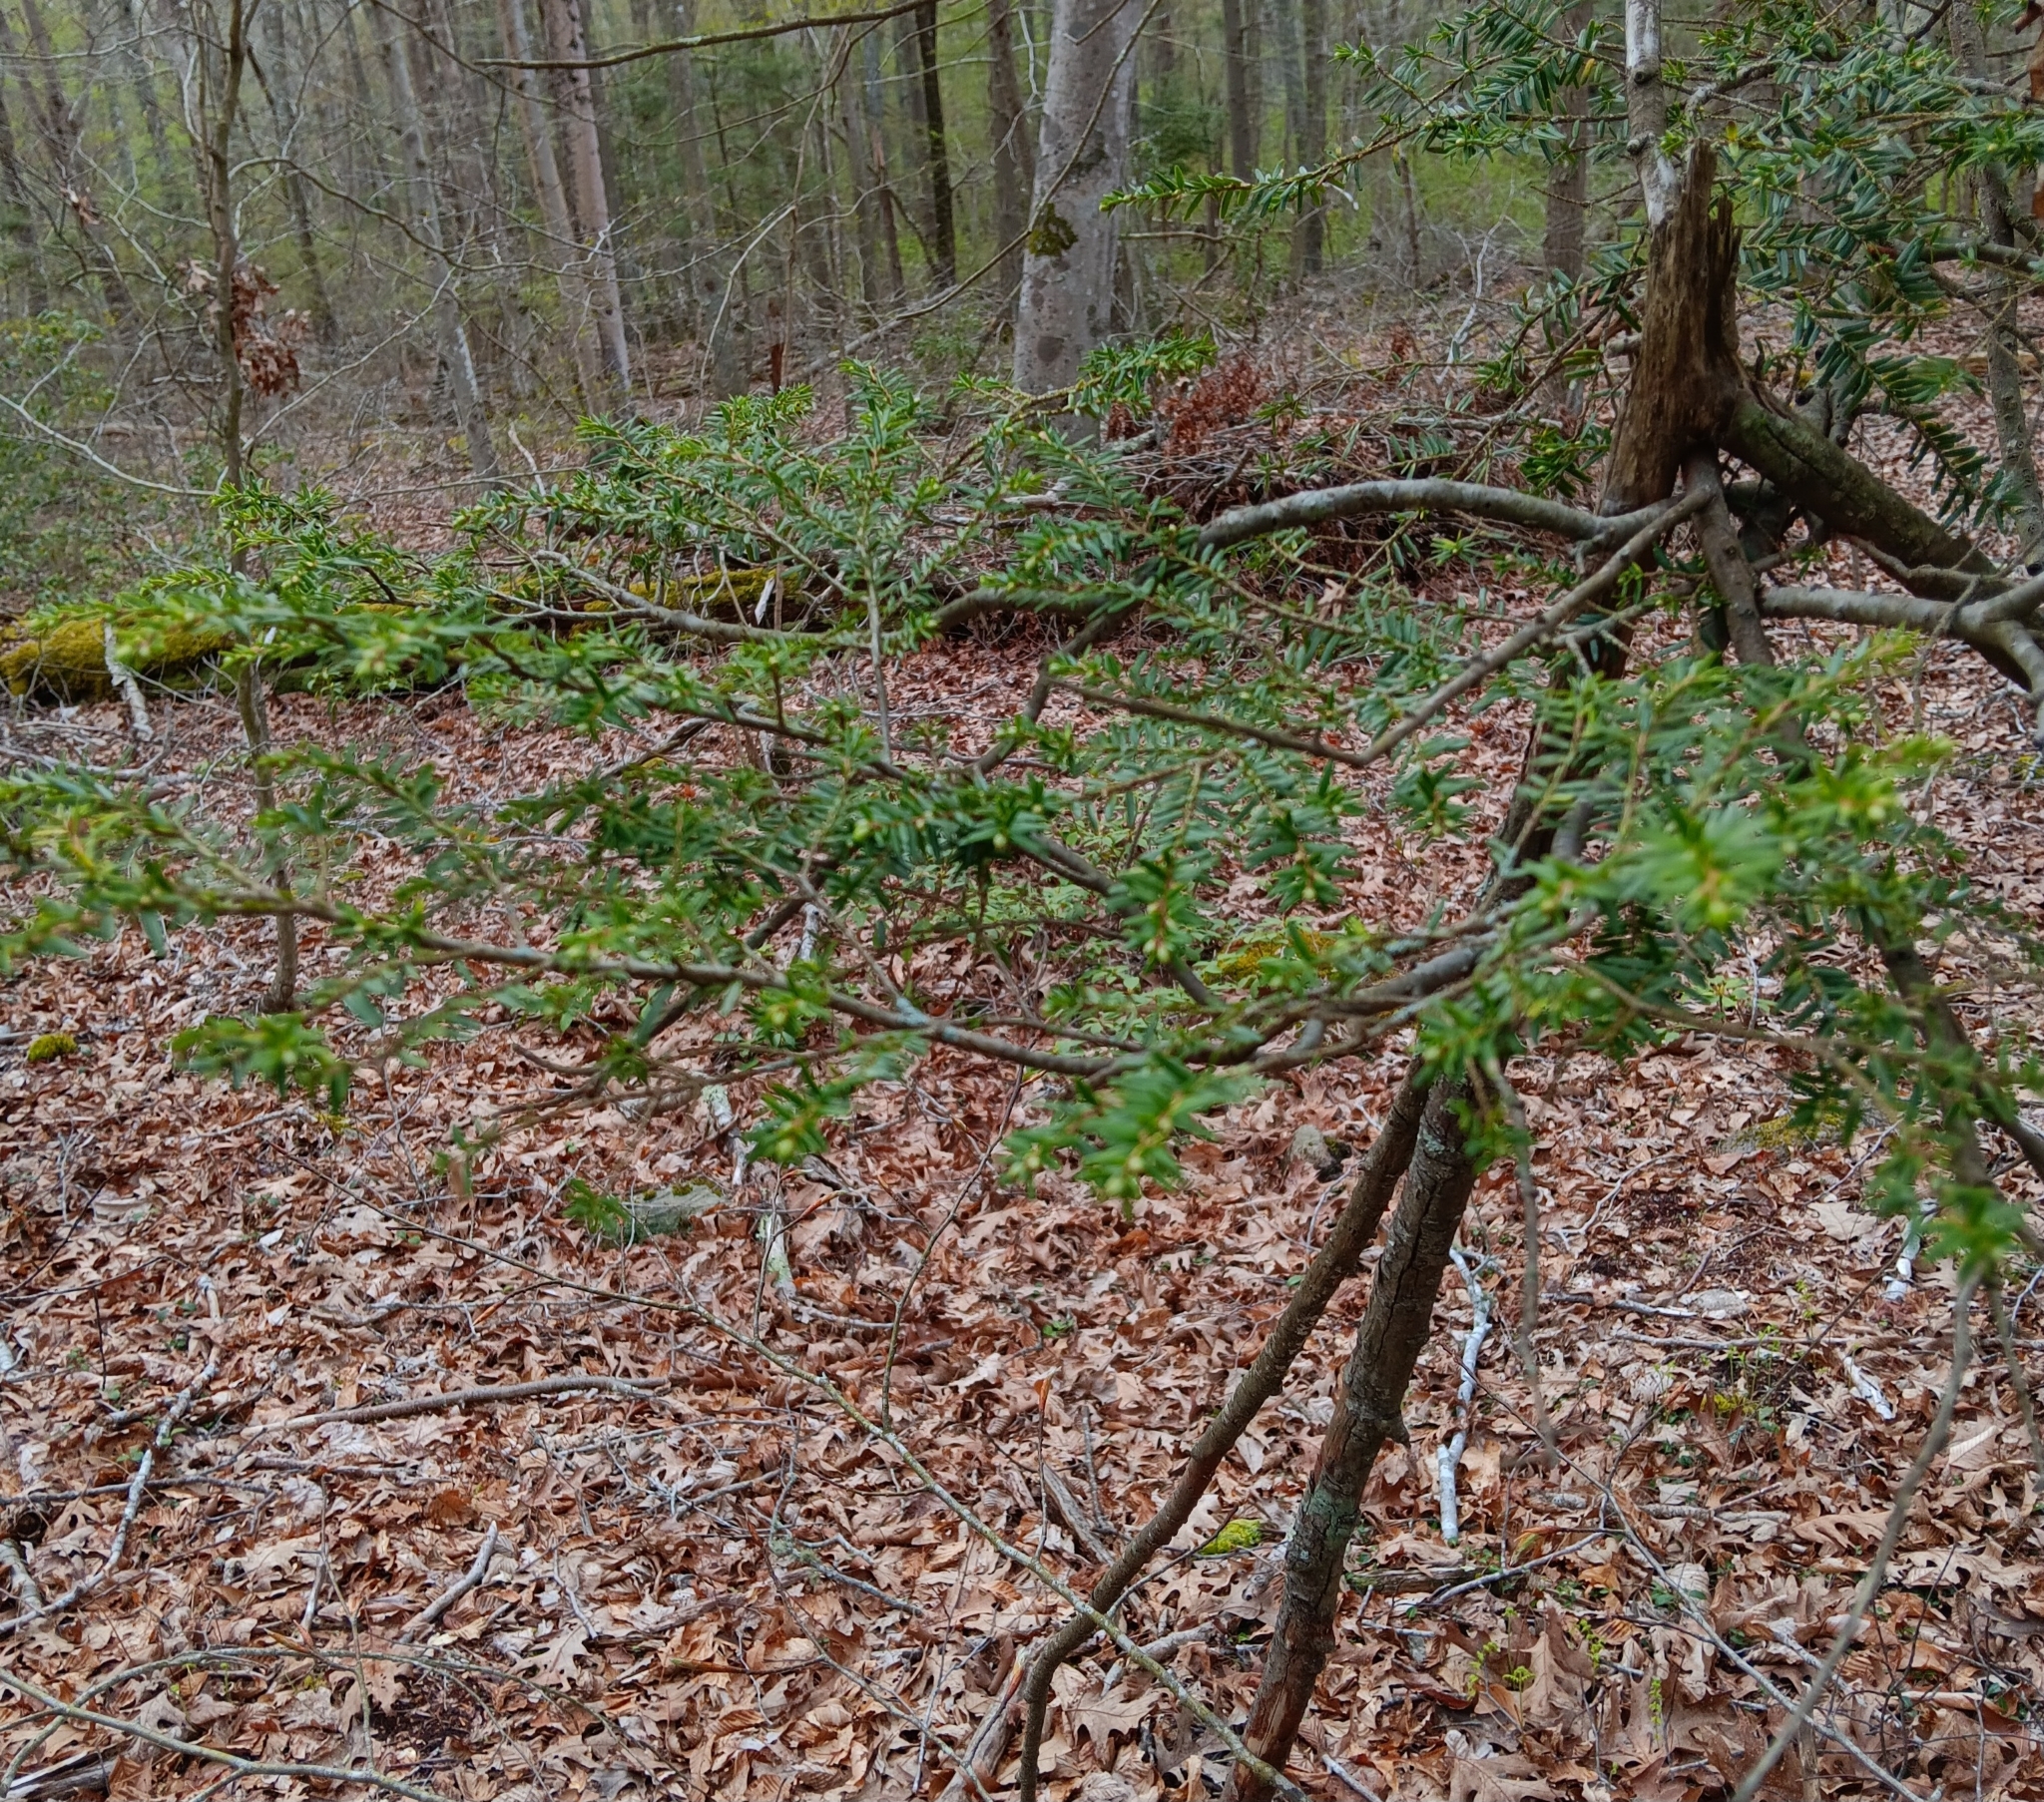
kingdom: Plantae
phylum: Tracheophyta
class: Pinopsida
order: Pinales
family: Pinaceae
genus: Tsuga
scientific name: Tsuga canadensis
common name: Eastern hemlock
